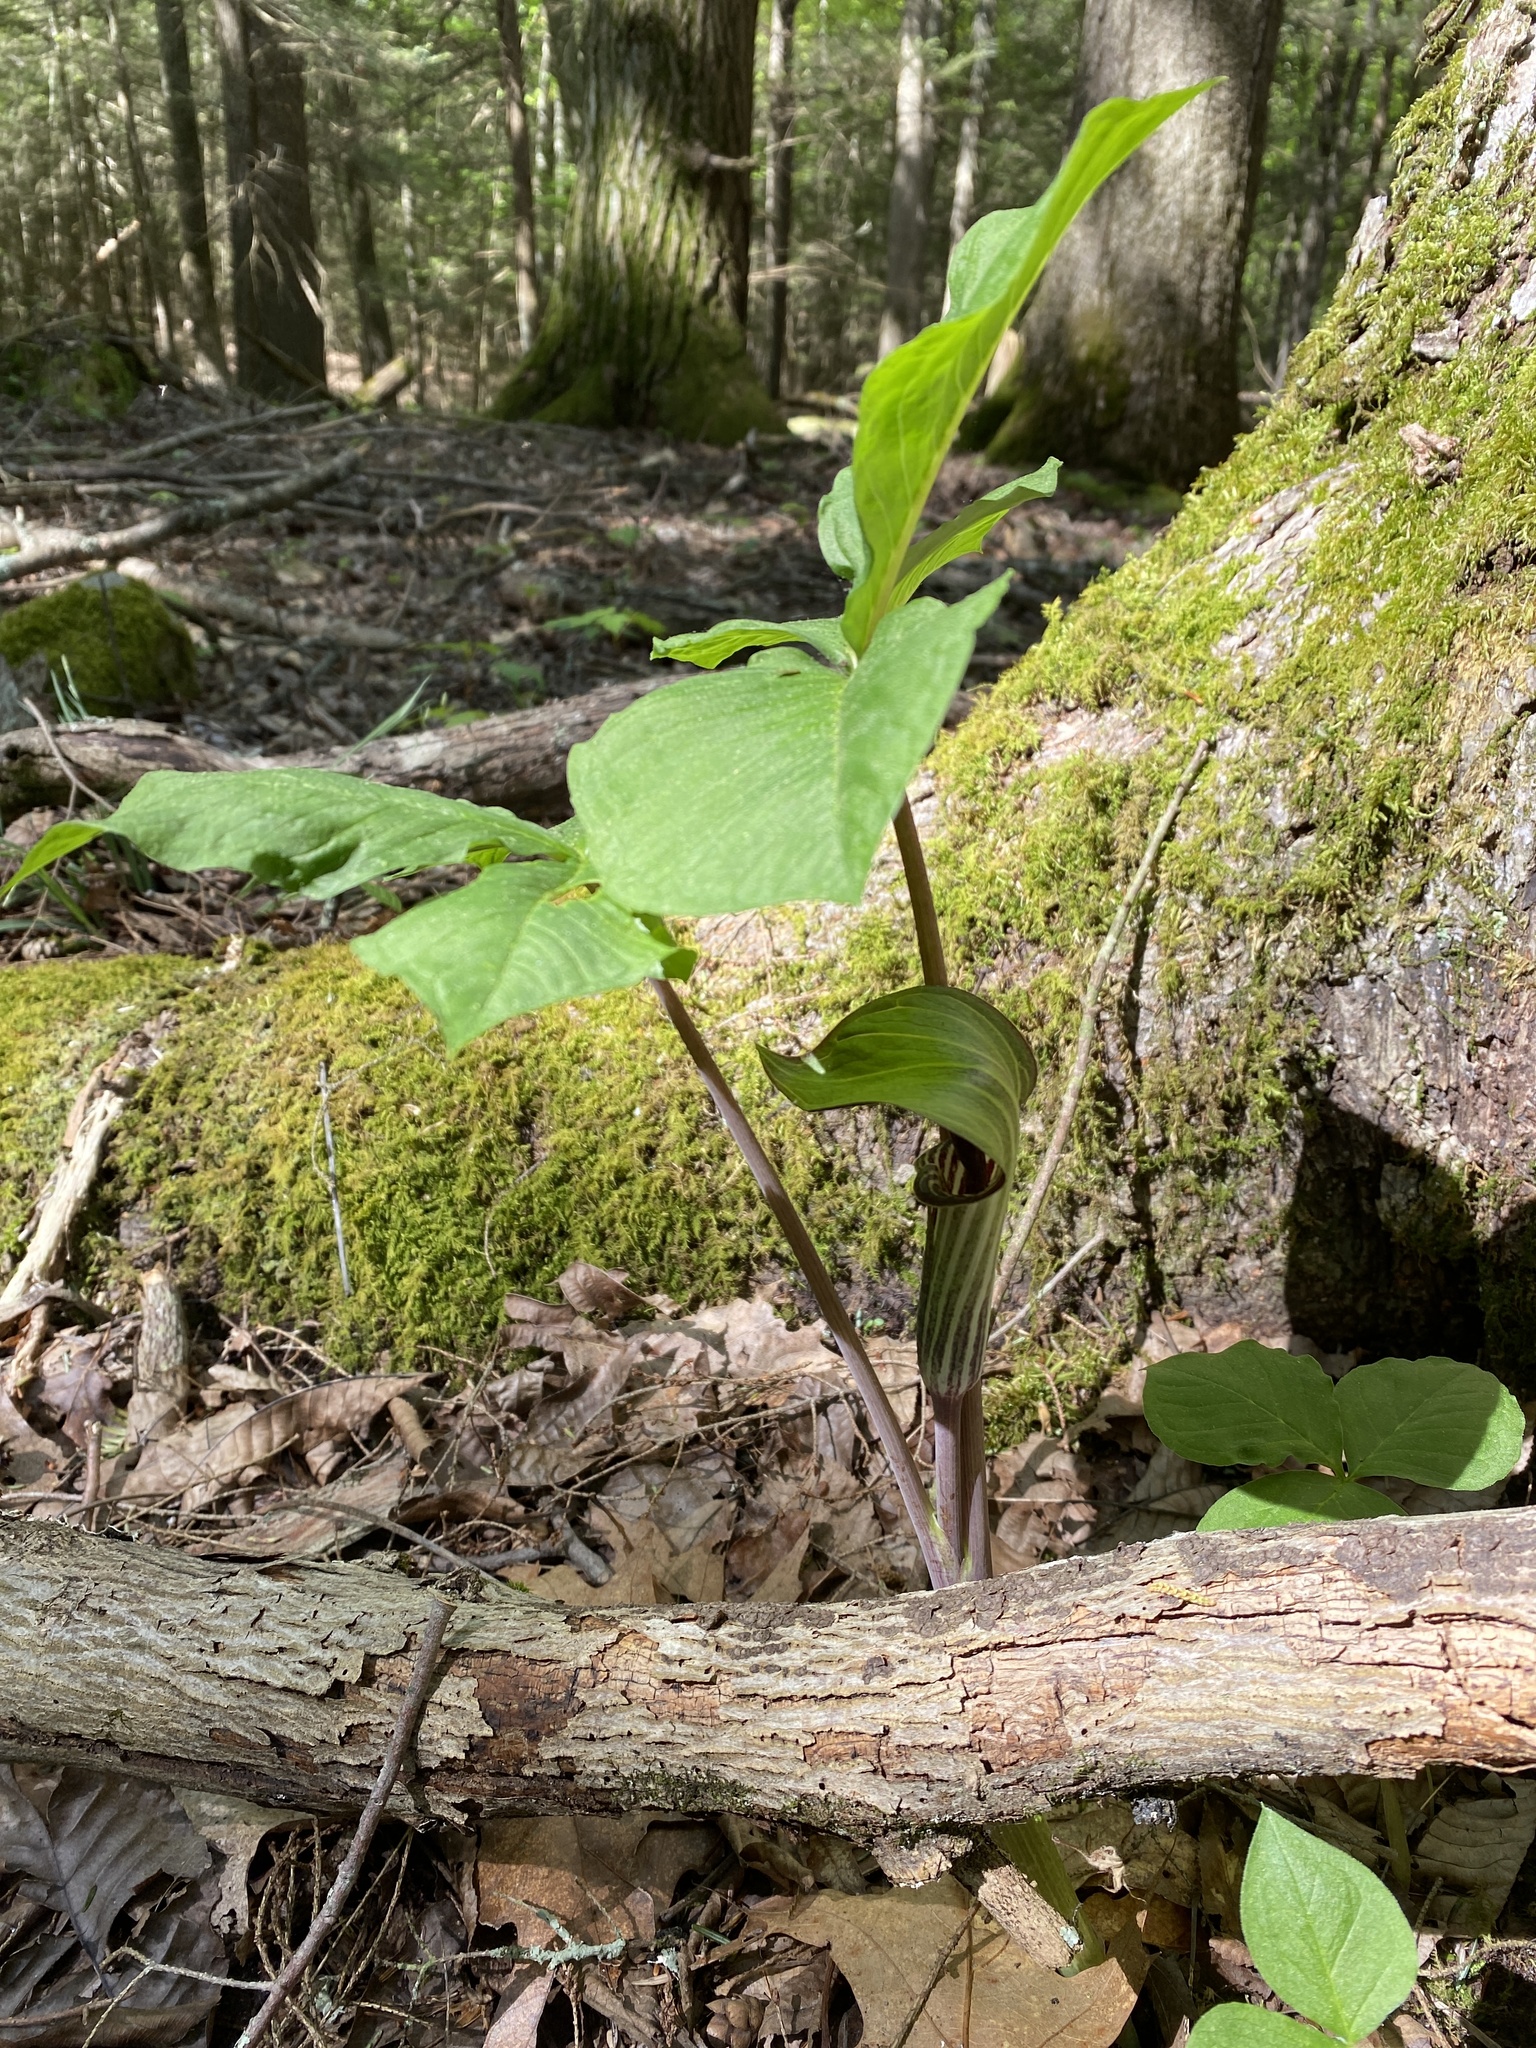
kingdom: Plantae
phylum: Tracheophyta
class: Liliopsida
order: Alismatales
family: Araceae
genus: Arisaema
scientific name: Arisaema triphyllum
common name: Jack-in-the-pulpit
